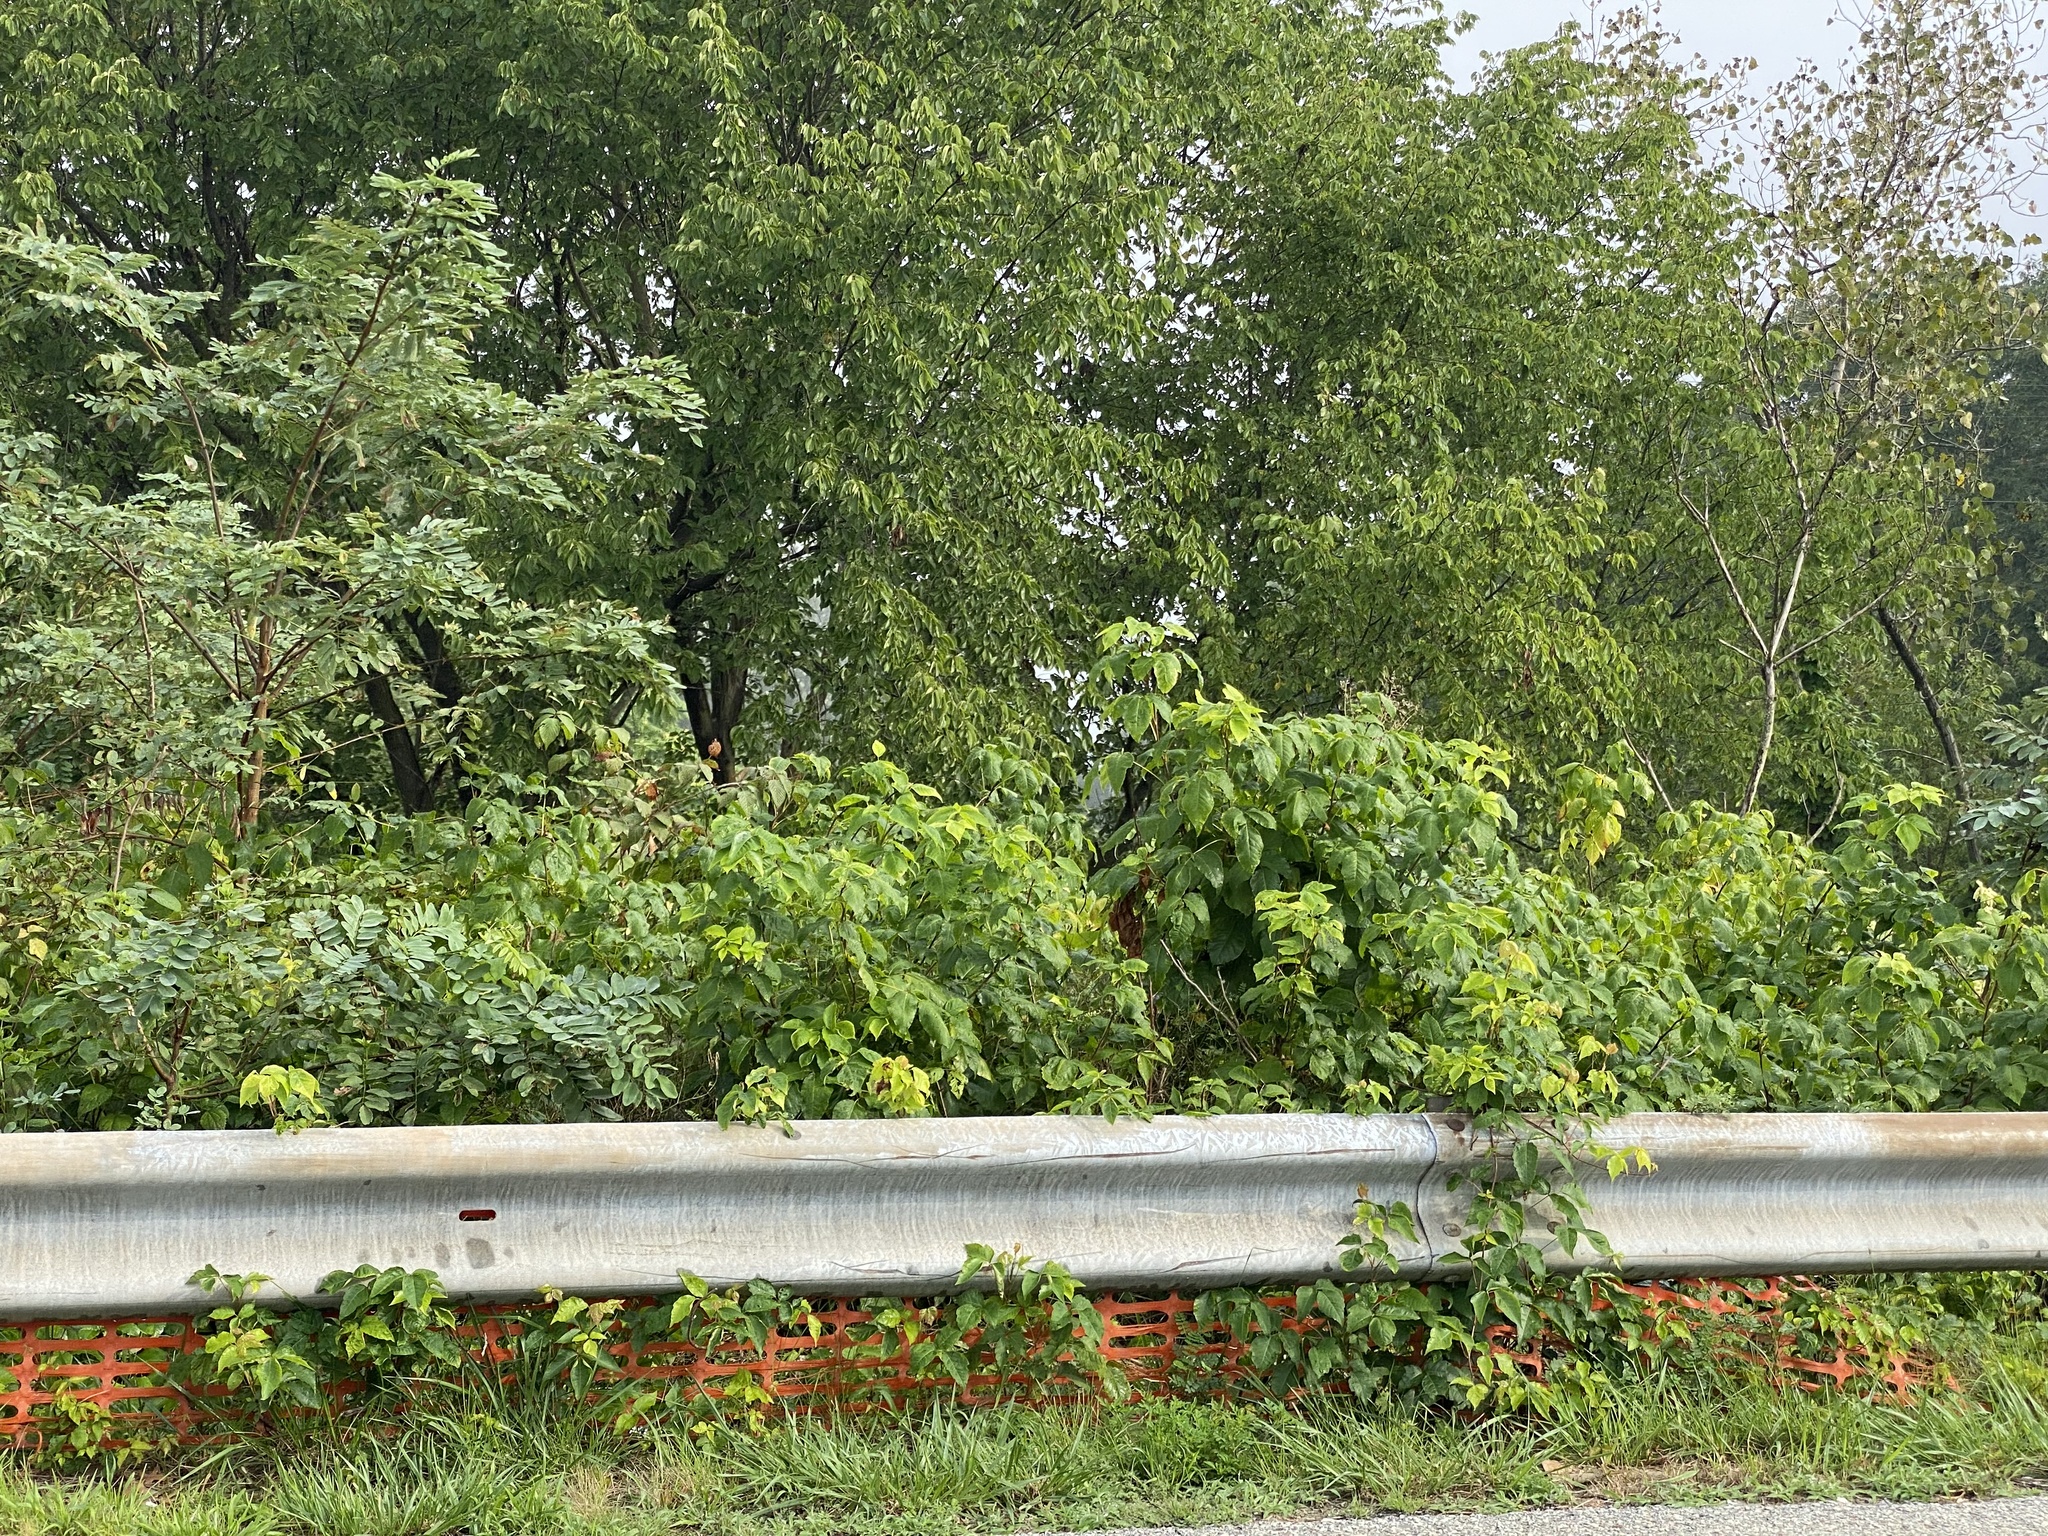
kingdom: Plantae
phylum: Tracheophyta
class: Magnoliopsida
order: Sapindales
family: Anacardiaceae
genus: Toxicodendron
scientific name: Toxicodendron radicans
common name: Poison ivy
